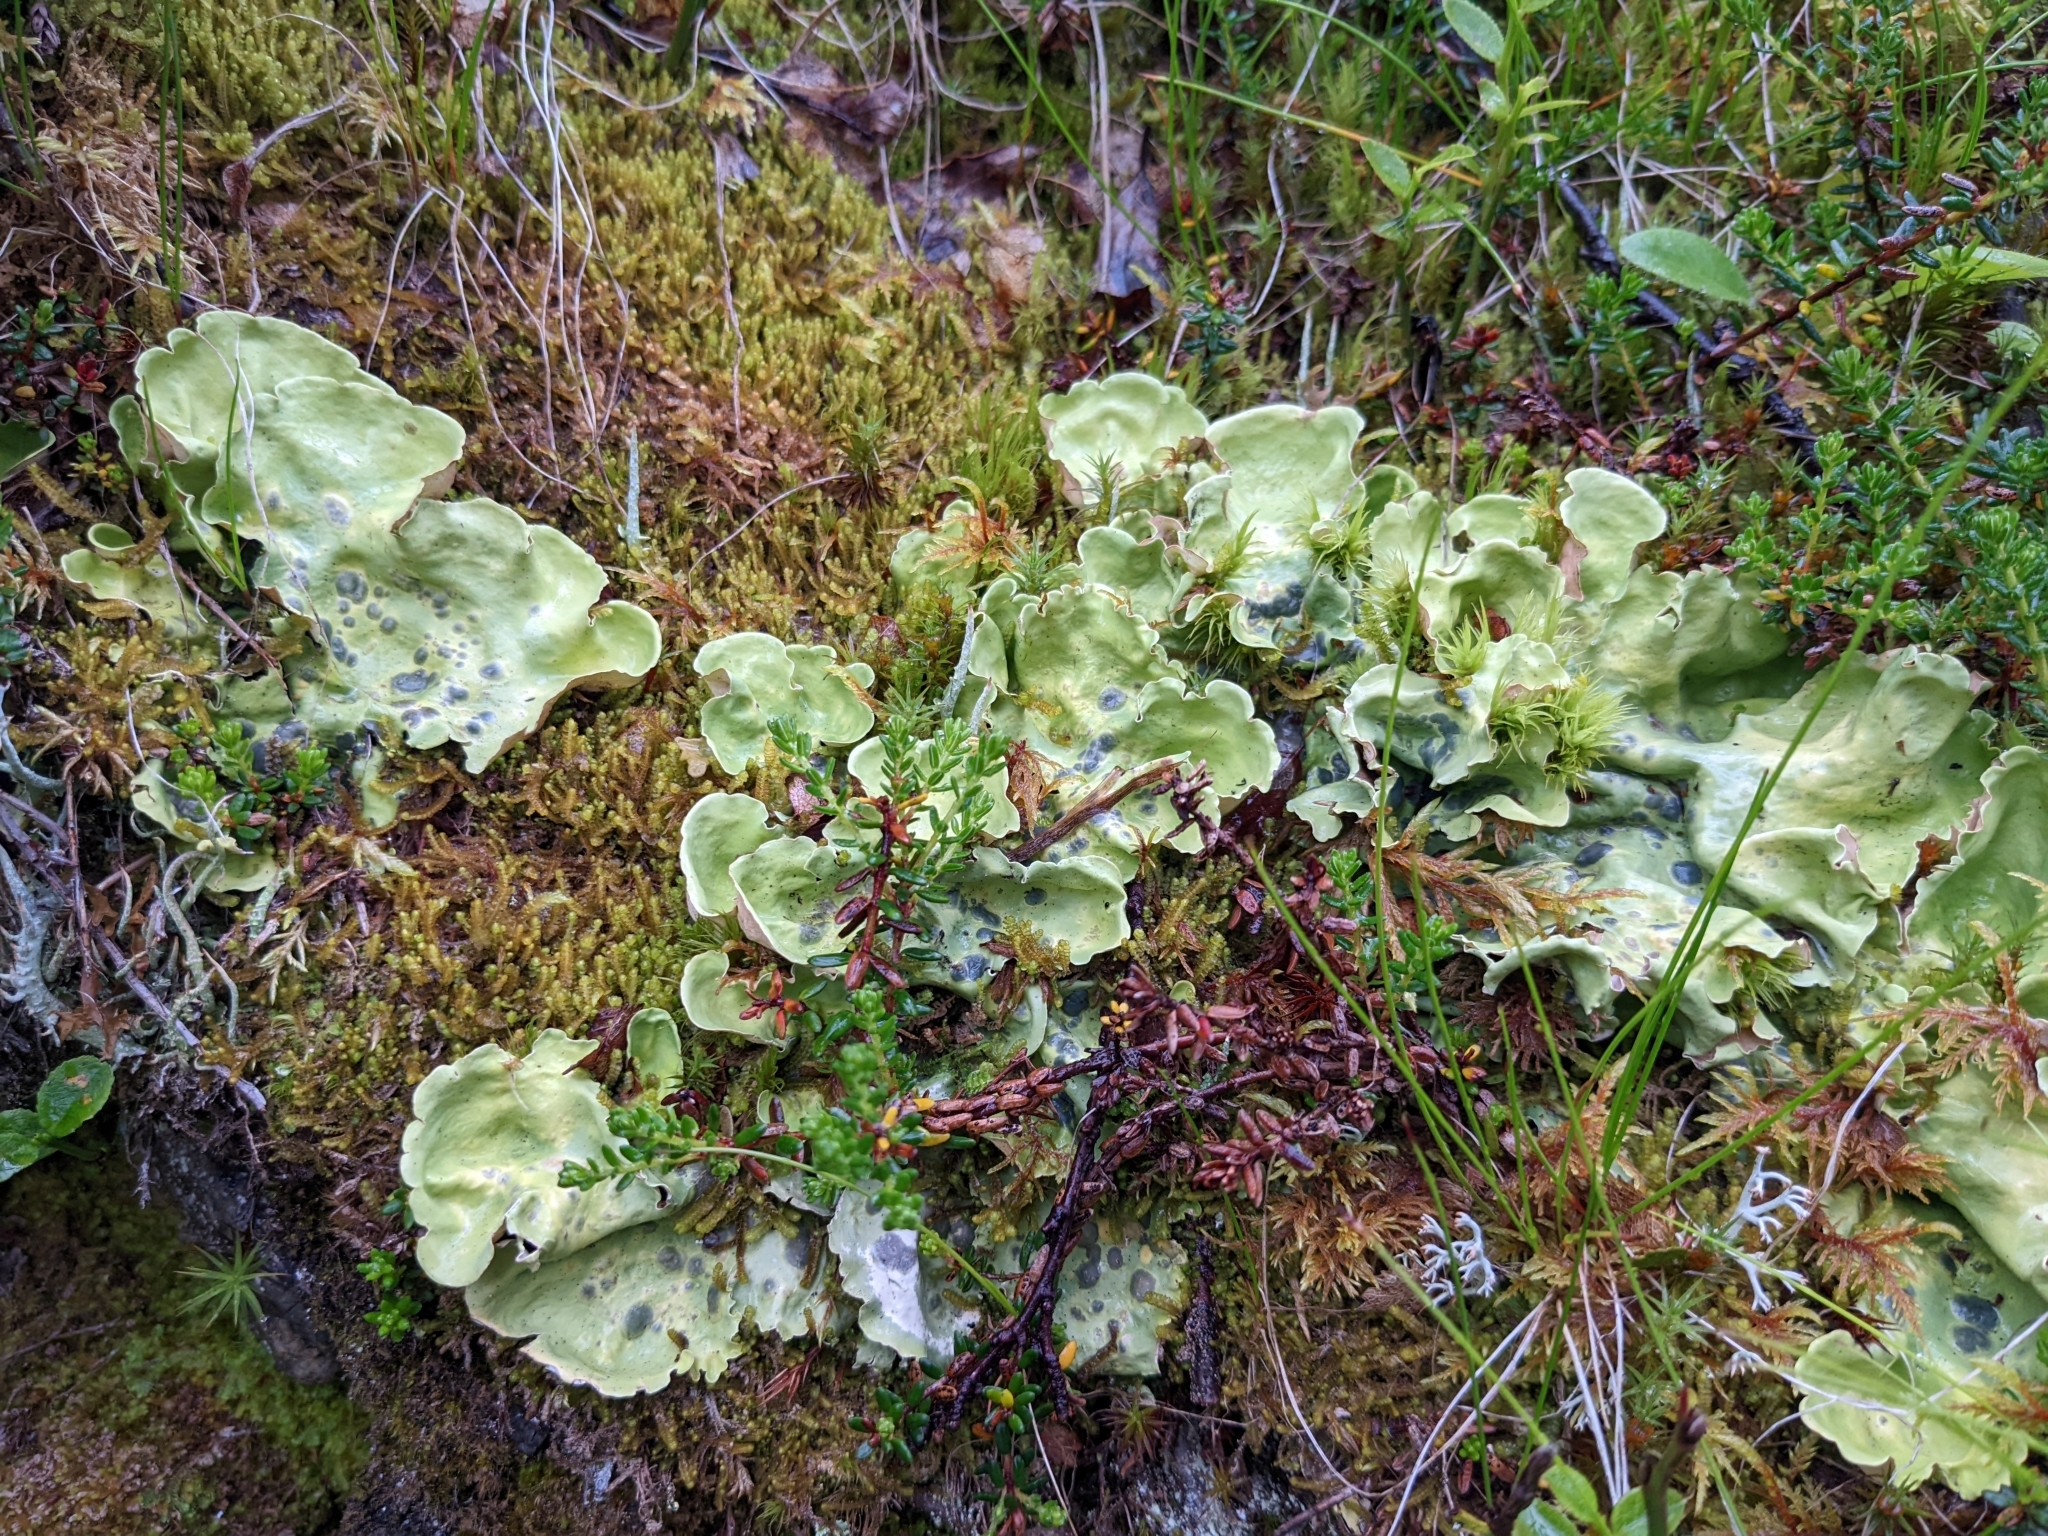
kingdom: Fungi
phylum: Ascomycota
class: Lecanoromycetes
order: Peltigerales
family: Nephromataceae
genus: Nephroma
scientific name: Nephroma arcticum
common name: Arctic kidney-lichen
